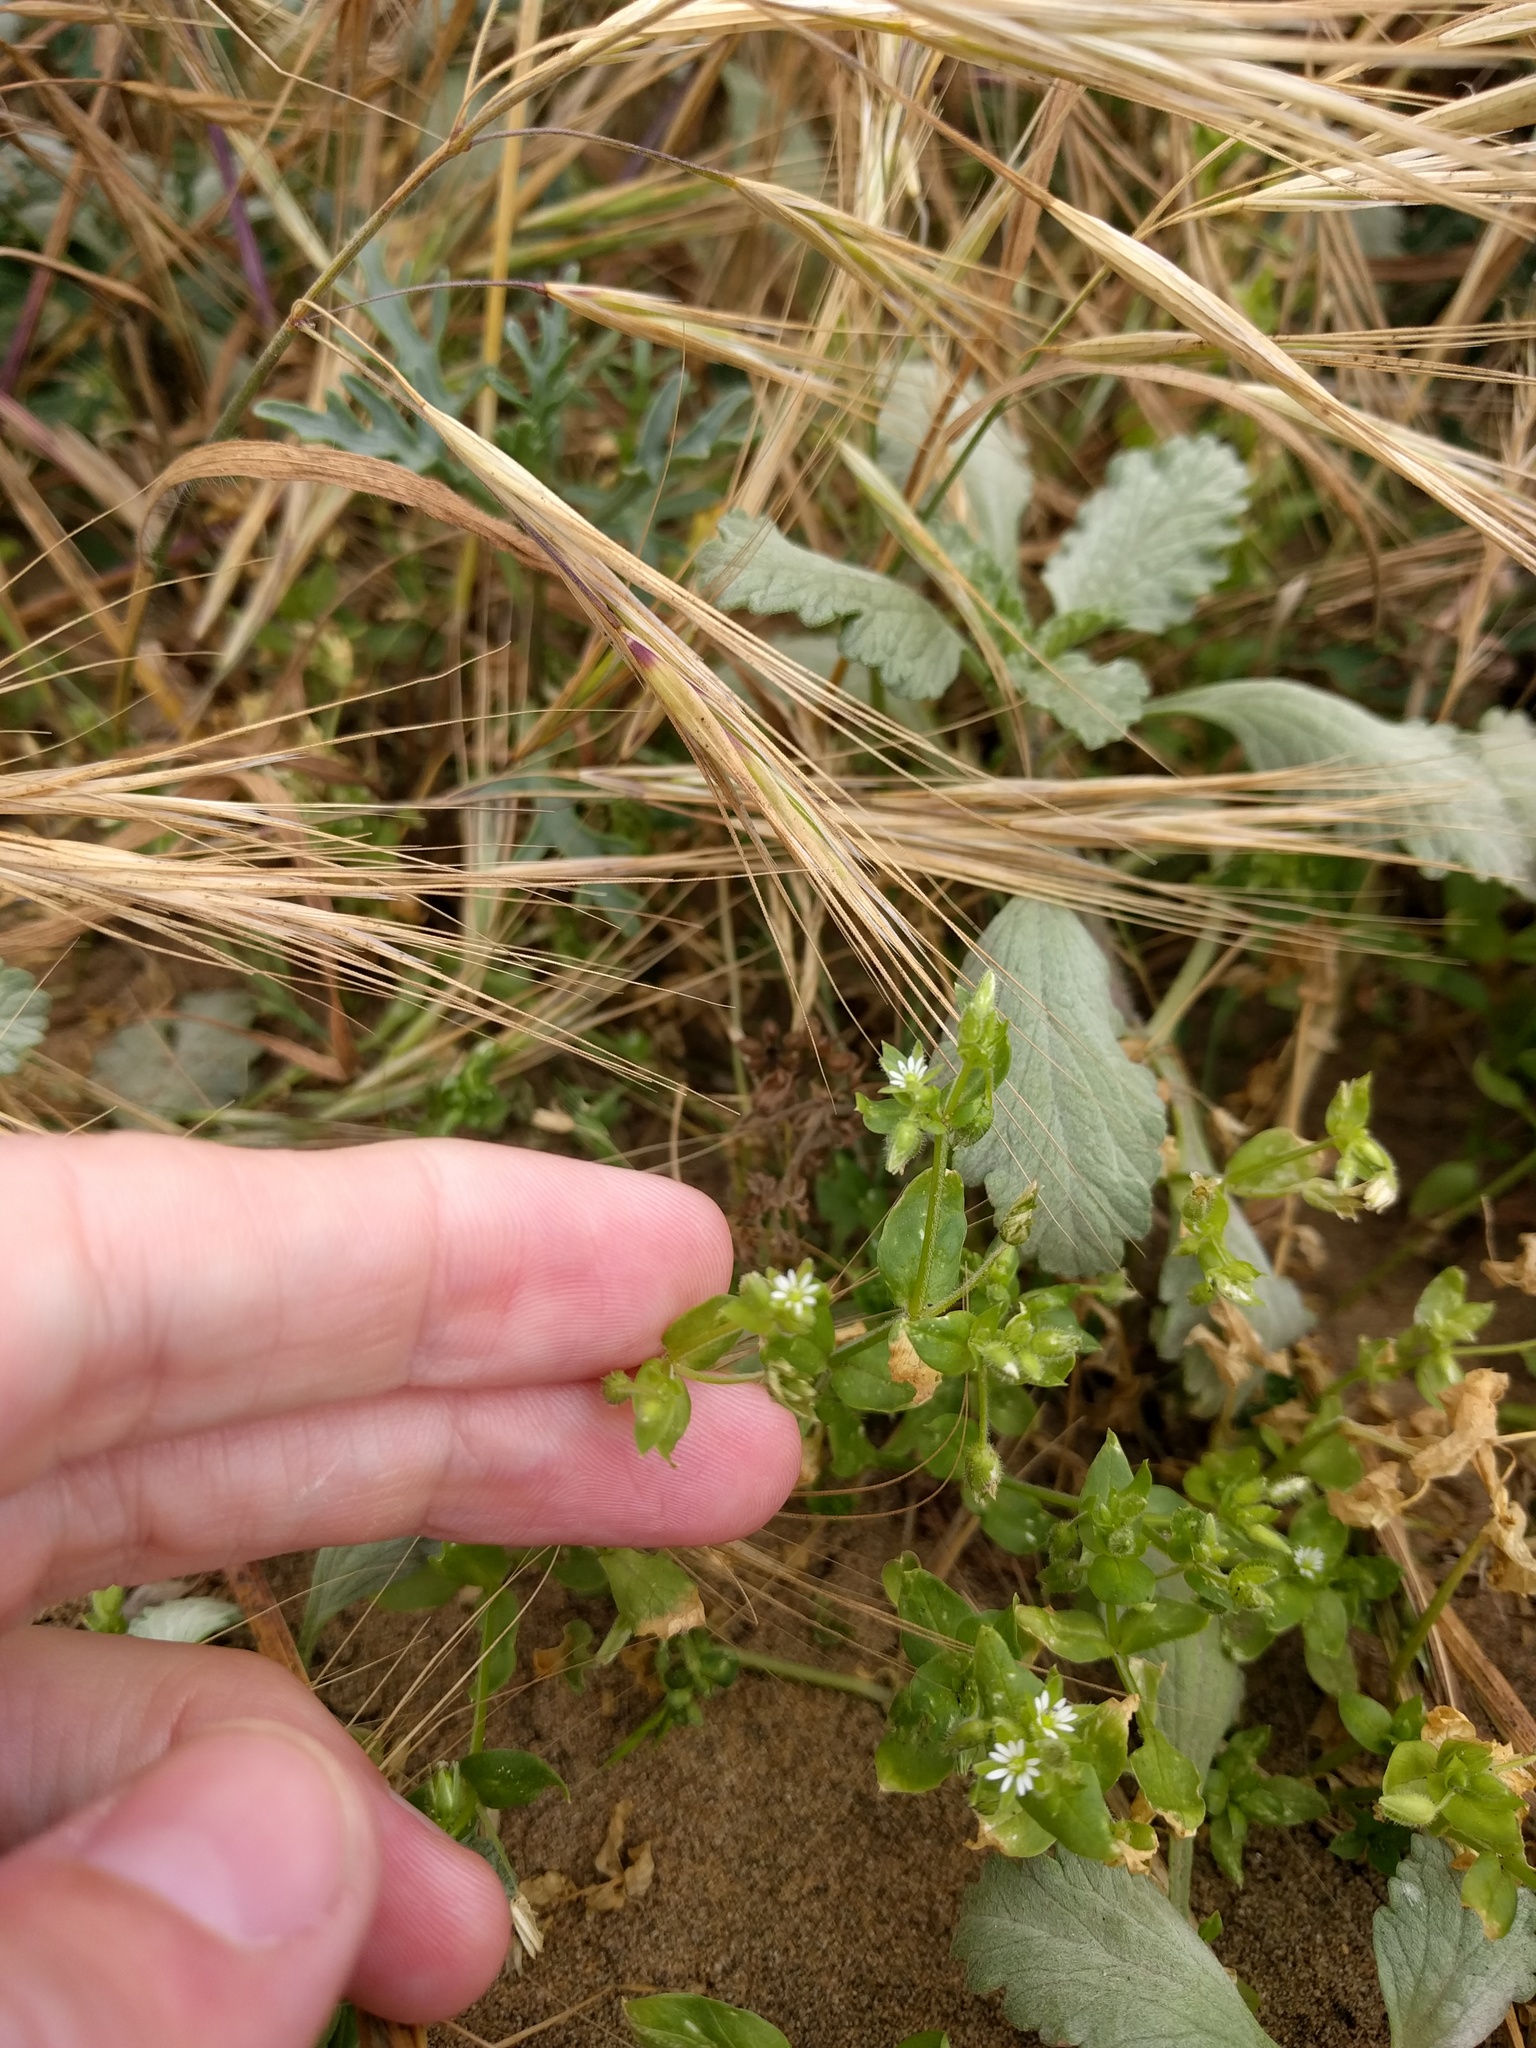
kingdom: Plantae
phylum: Tracheophyta
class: Magnoliopsida
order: Caryophyllales
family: Caryophyllaceae
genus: Stellaria
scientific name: Stellaria media
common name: Common chickweed
